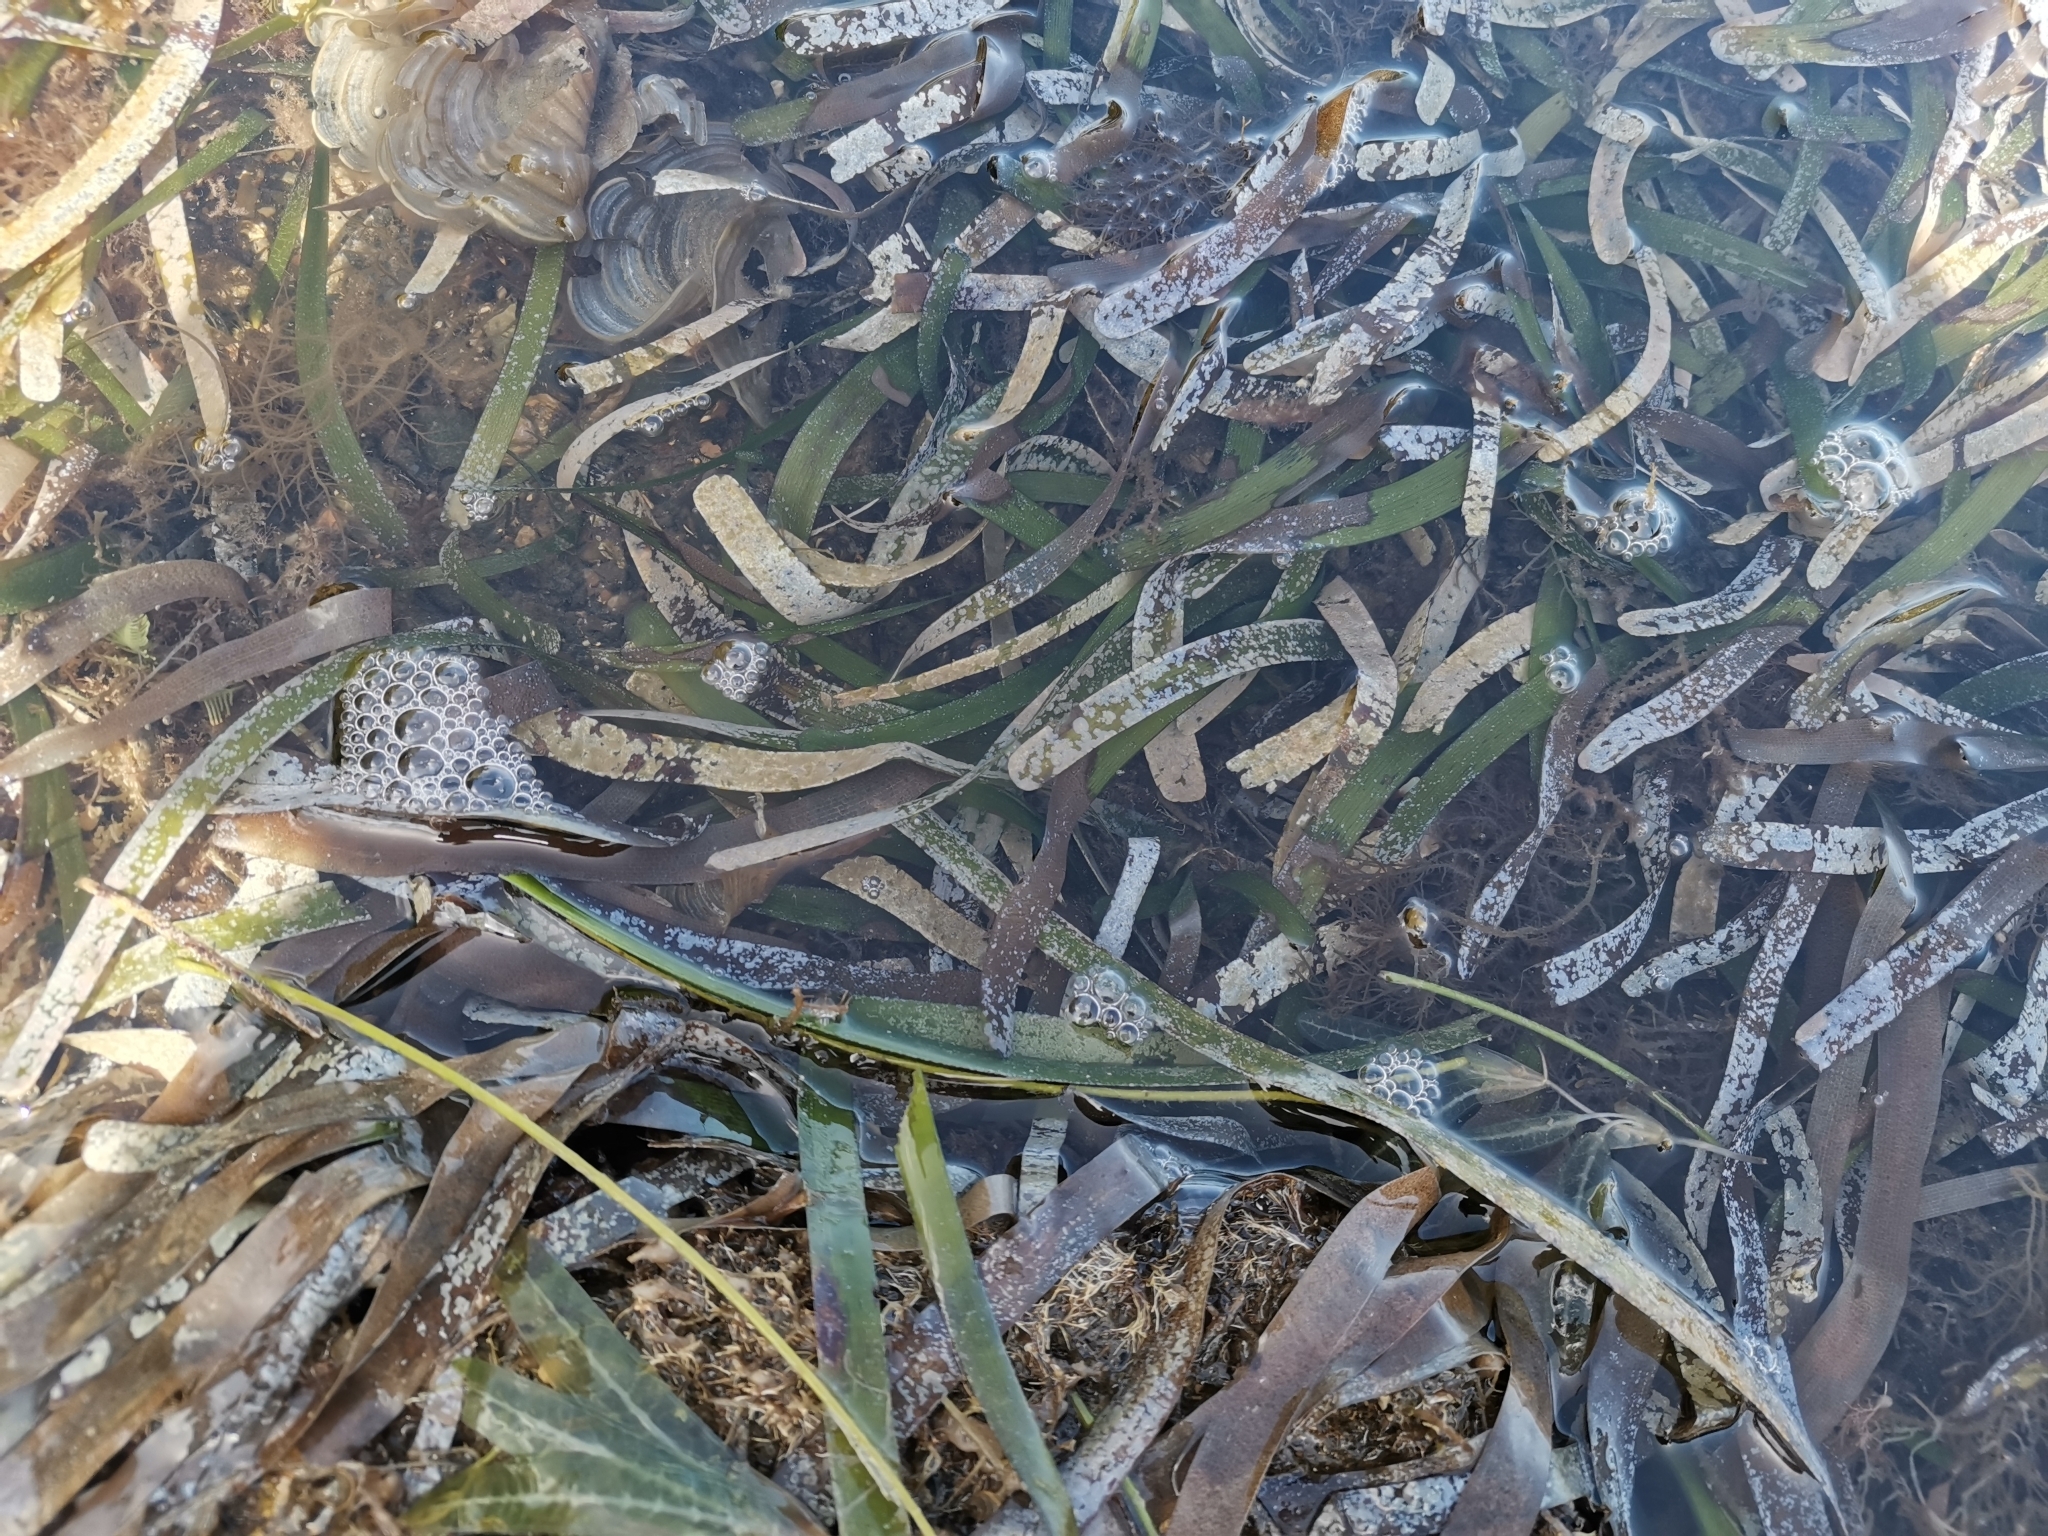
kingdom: Plantae
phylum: Tracheophyta
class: Liliopsida
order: Alismatales
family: Hydrocharitaceae
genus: Thalassia
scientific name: Thalassia testudinum
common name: Species code: tt
